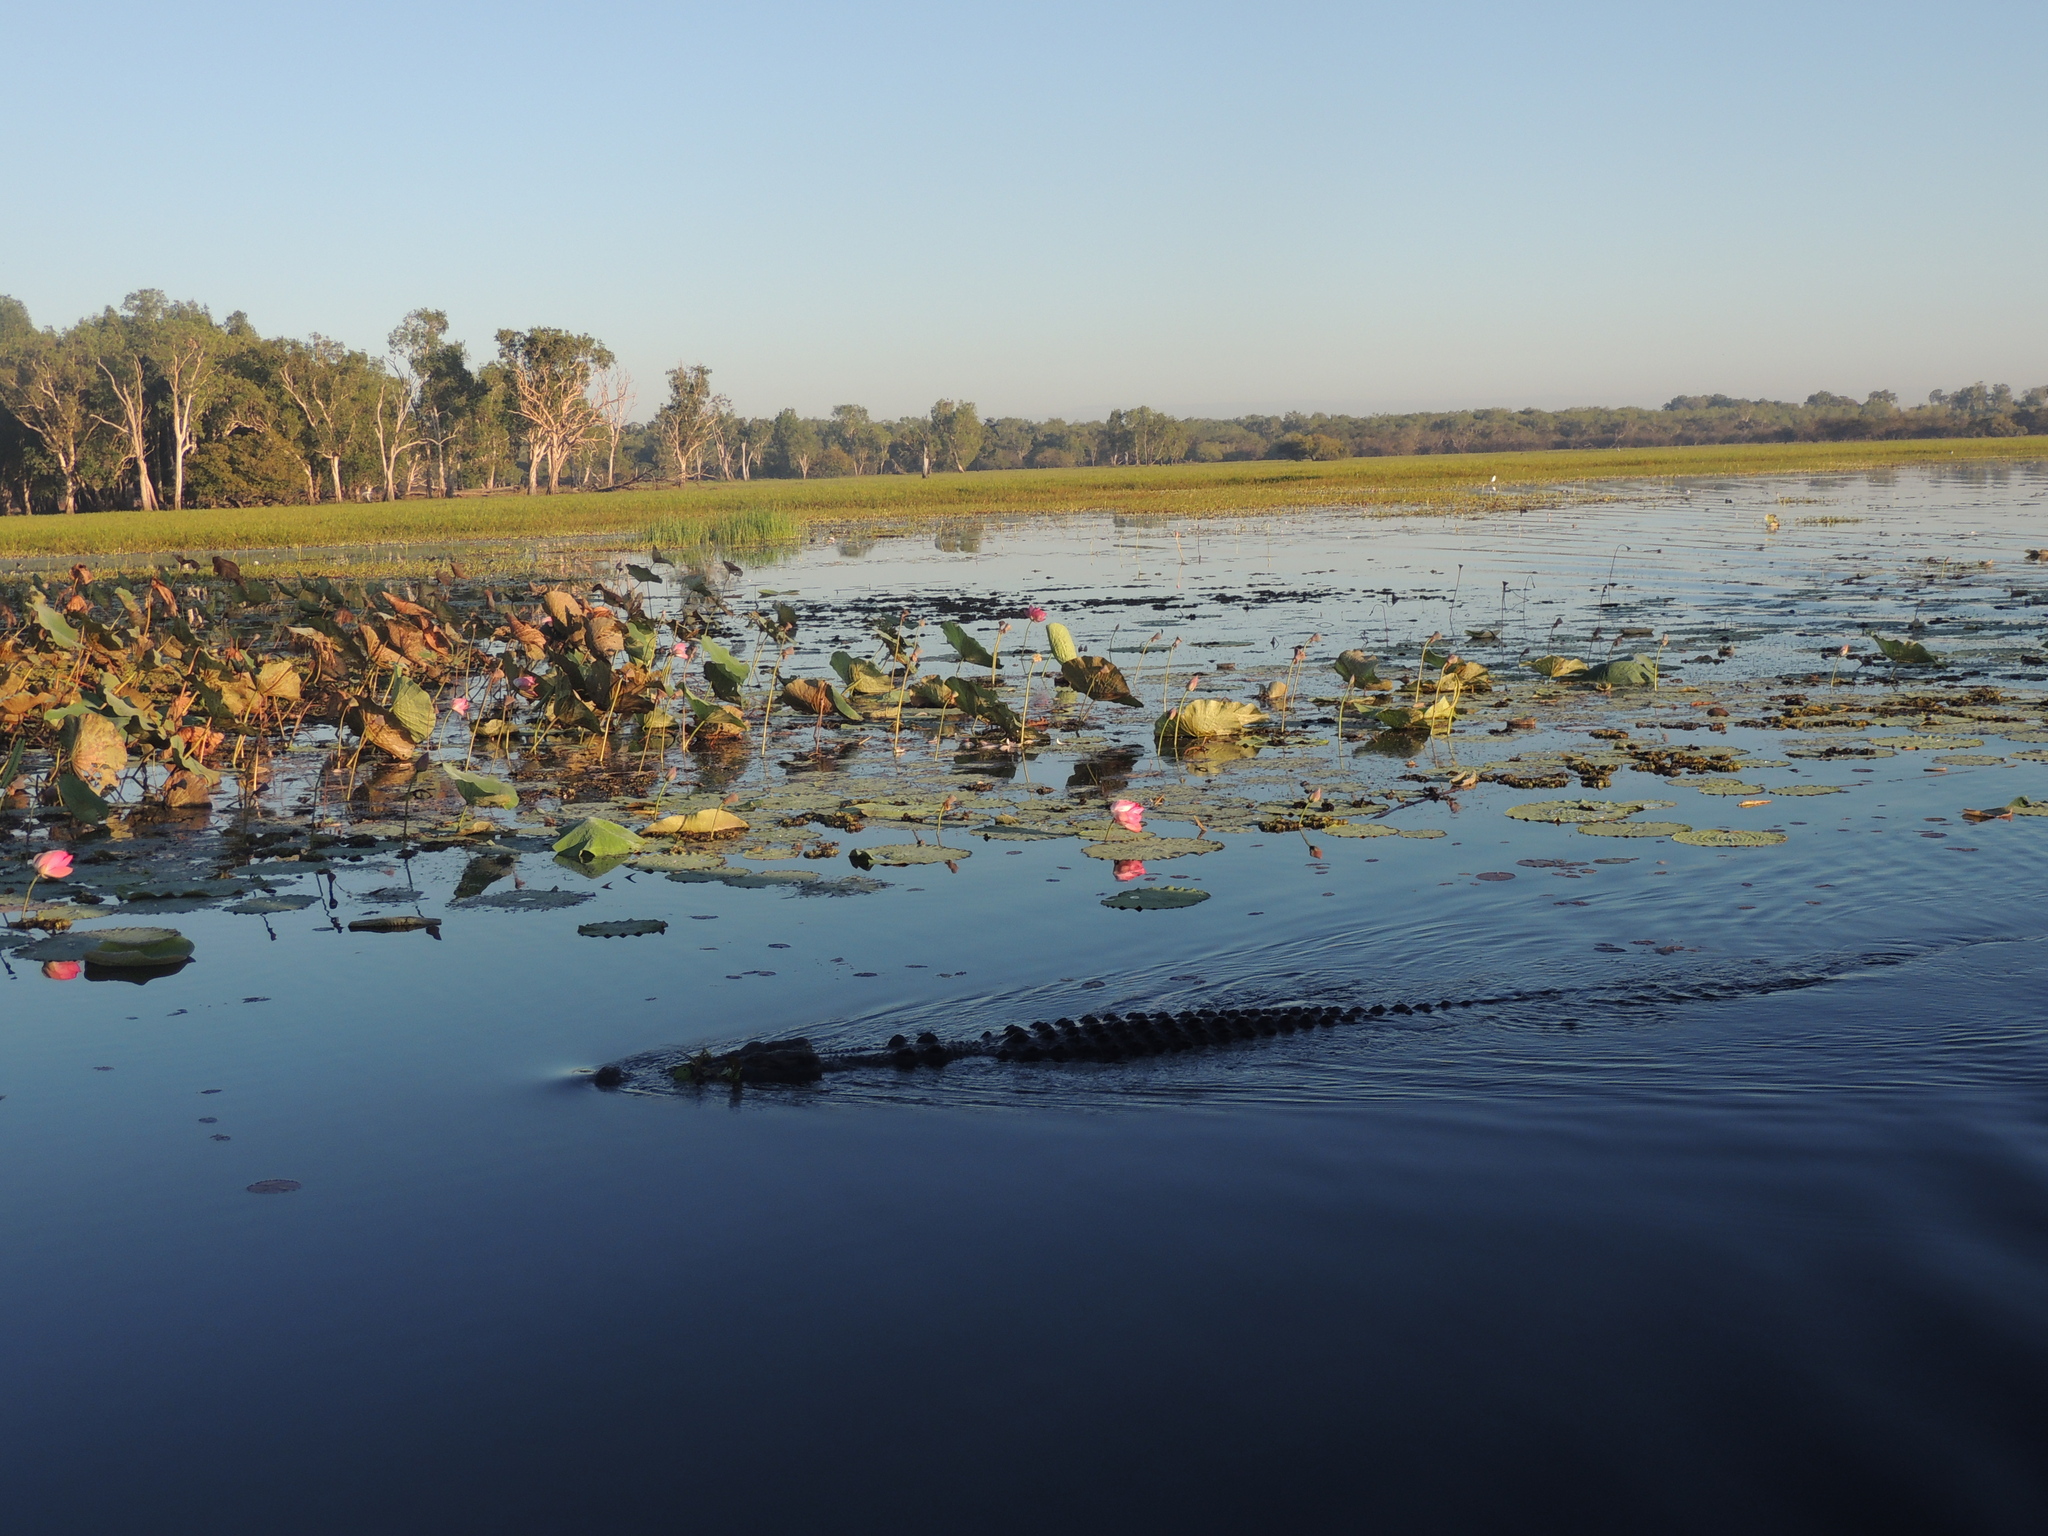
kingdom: Animalia
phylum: Chordata
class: Crocodylia
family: Crocodylidae
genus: Crocodylus
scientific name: Crocodylus porosus
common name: Saltwater crocodile
